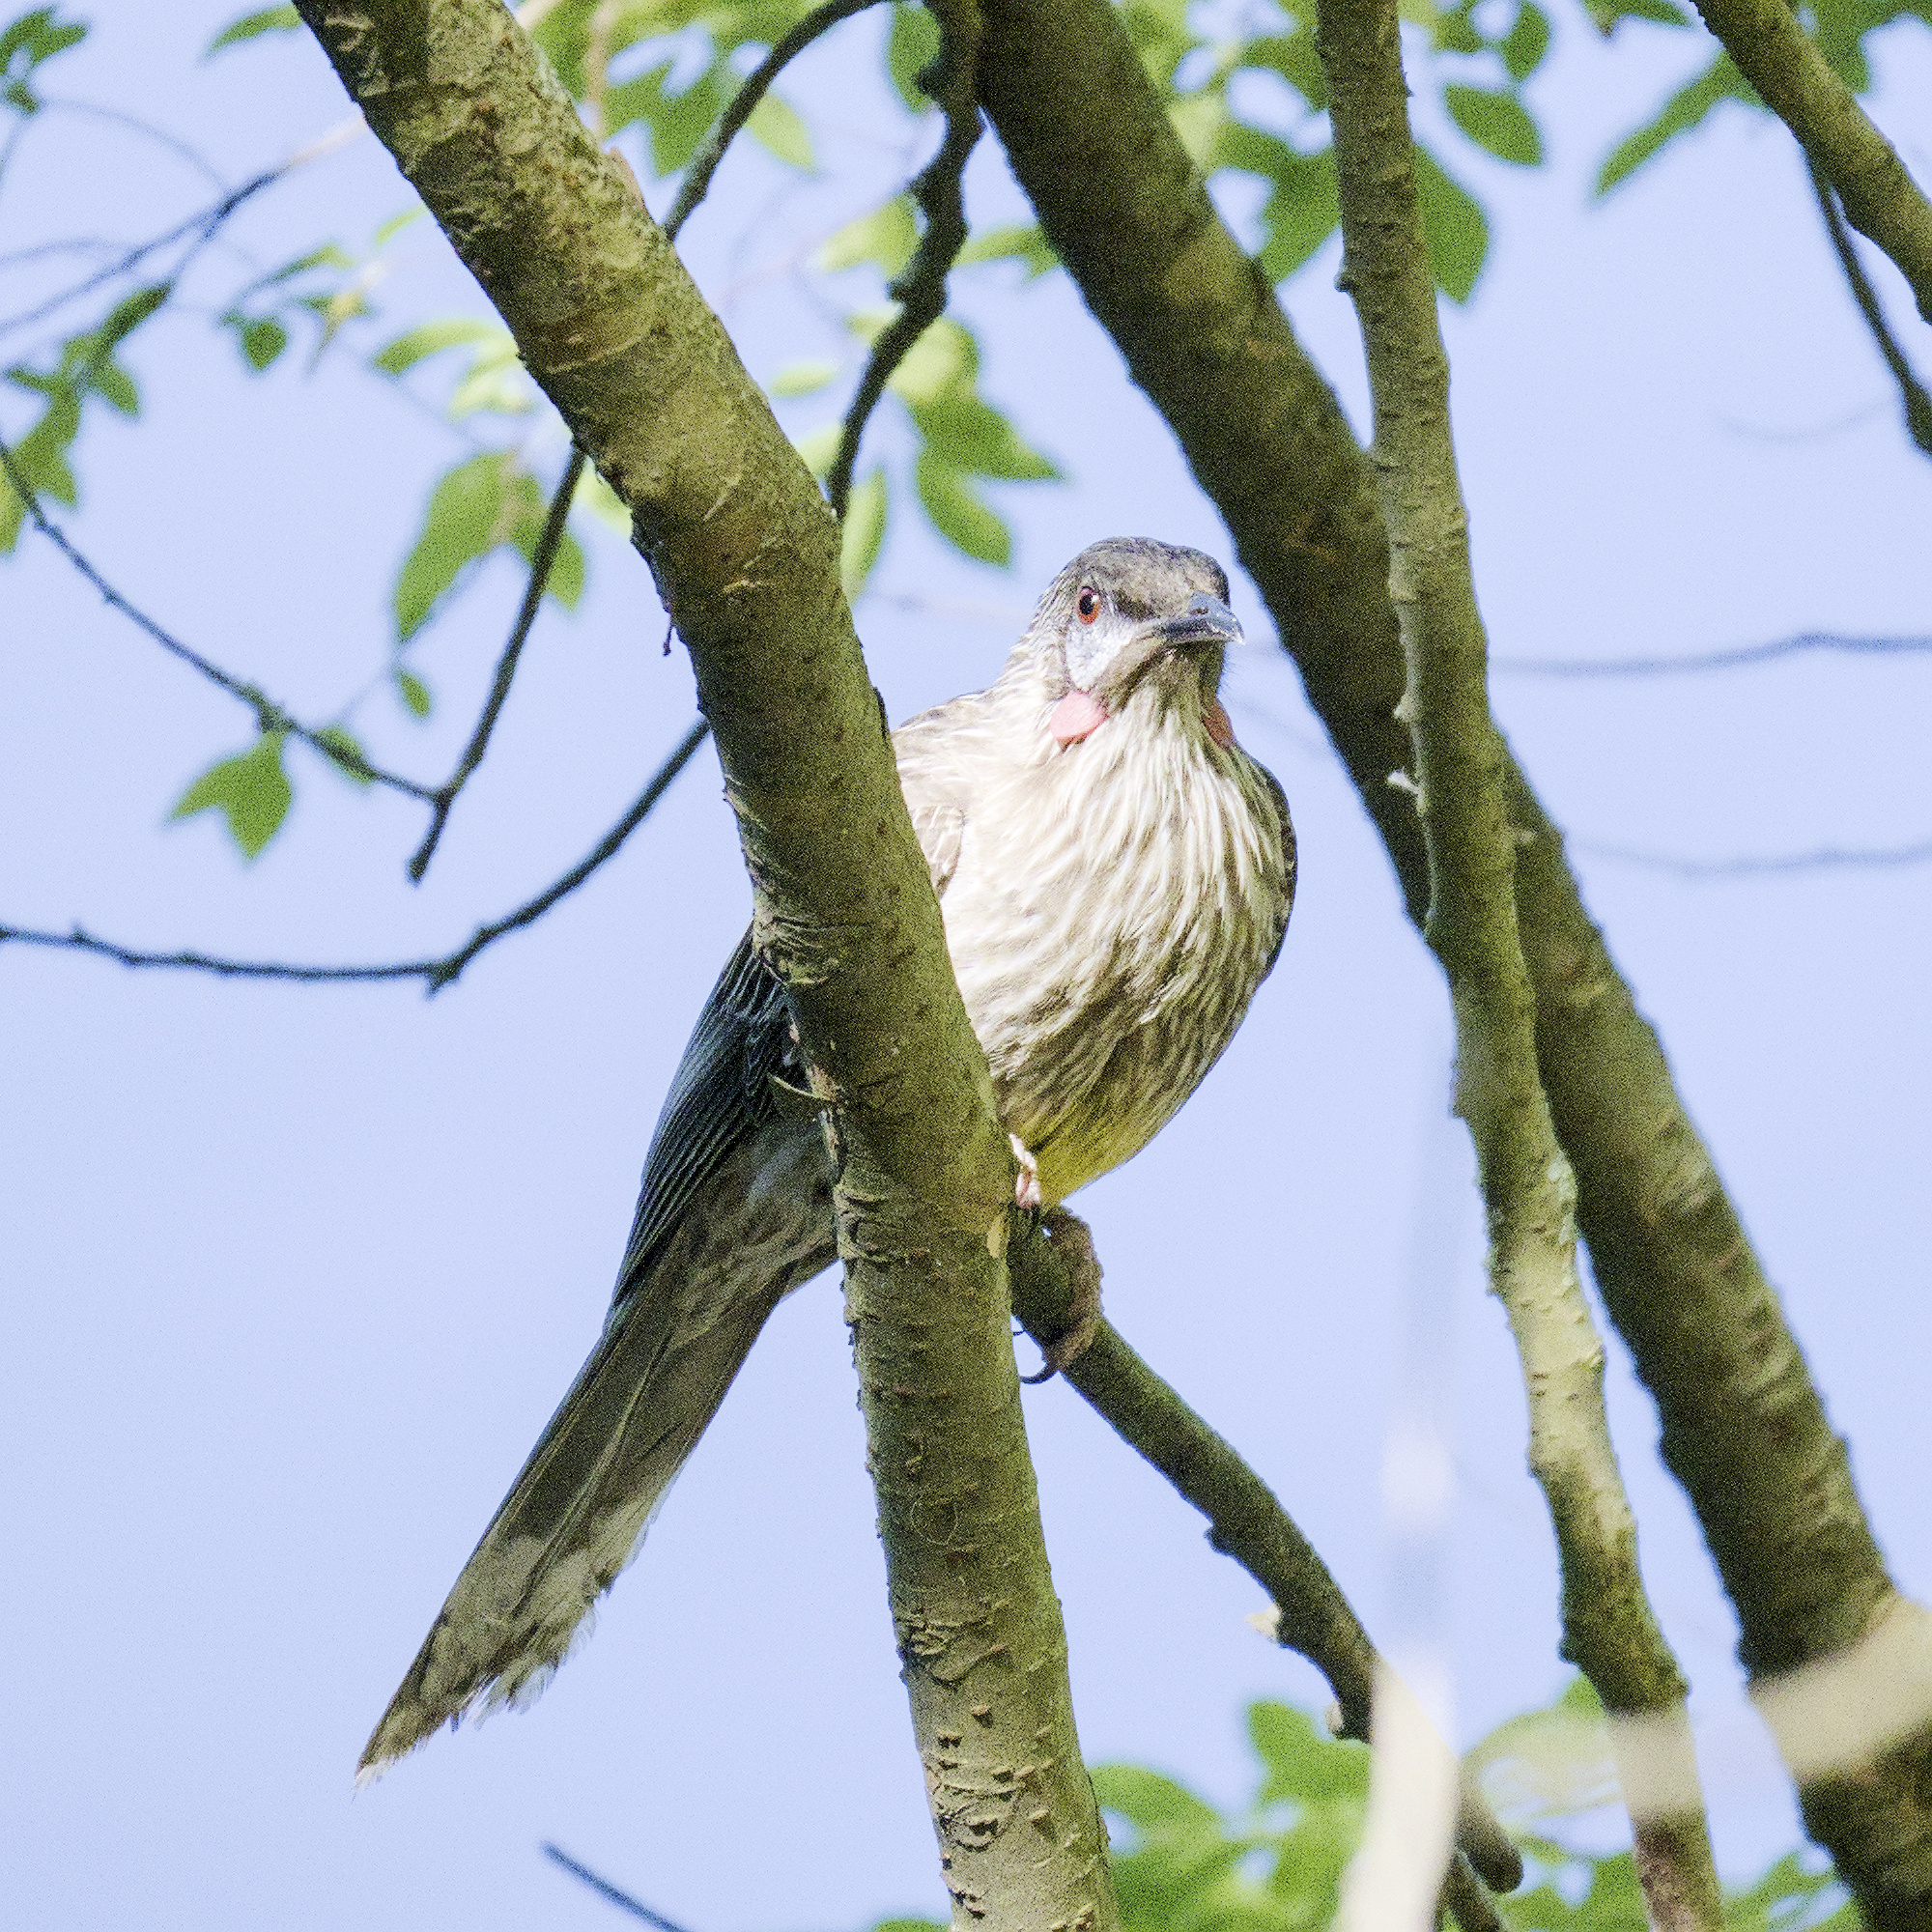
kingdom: Animalia
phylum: Chordata
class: Aves
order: Passeriformes
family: Meliphagidae
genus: Anthochaera
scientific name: Anthochaera carunculata
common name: Red wattlebird
